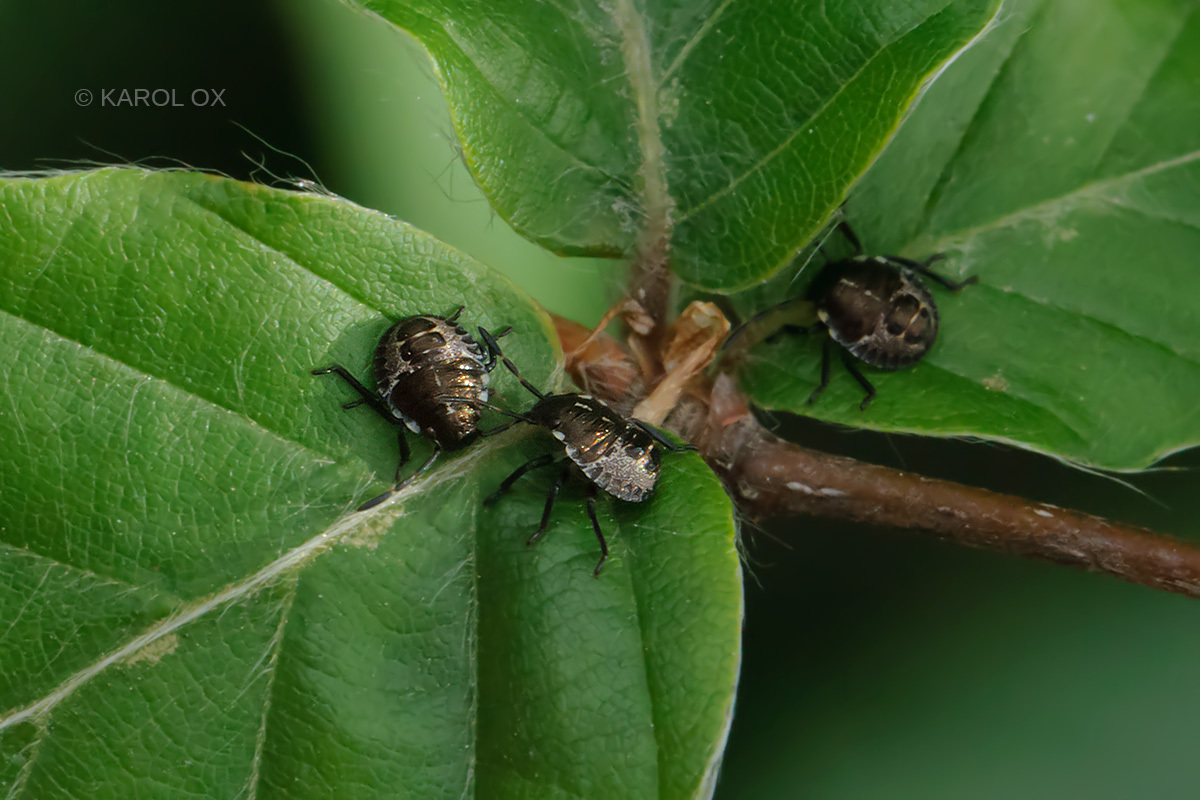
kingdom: Animalia
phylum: Arthropoda
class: Insecta
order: Hemiptera
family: Pentatomidae
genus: Rhaphigaster
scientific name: Rhaphigaster nebulosa
